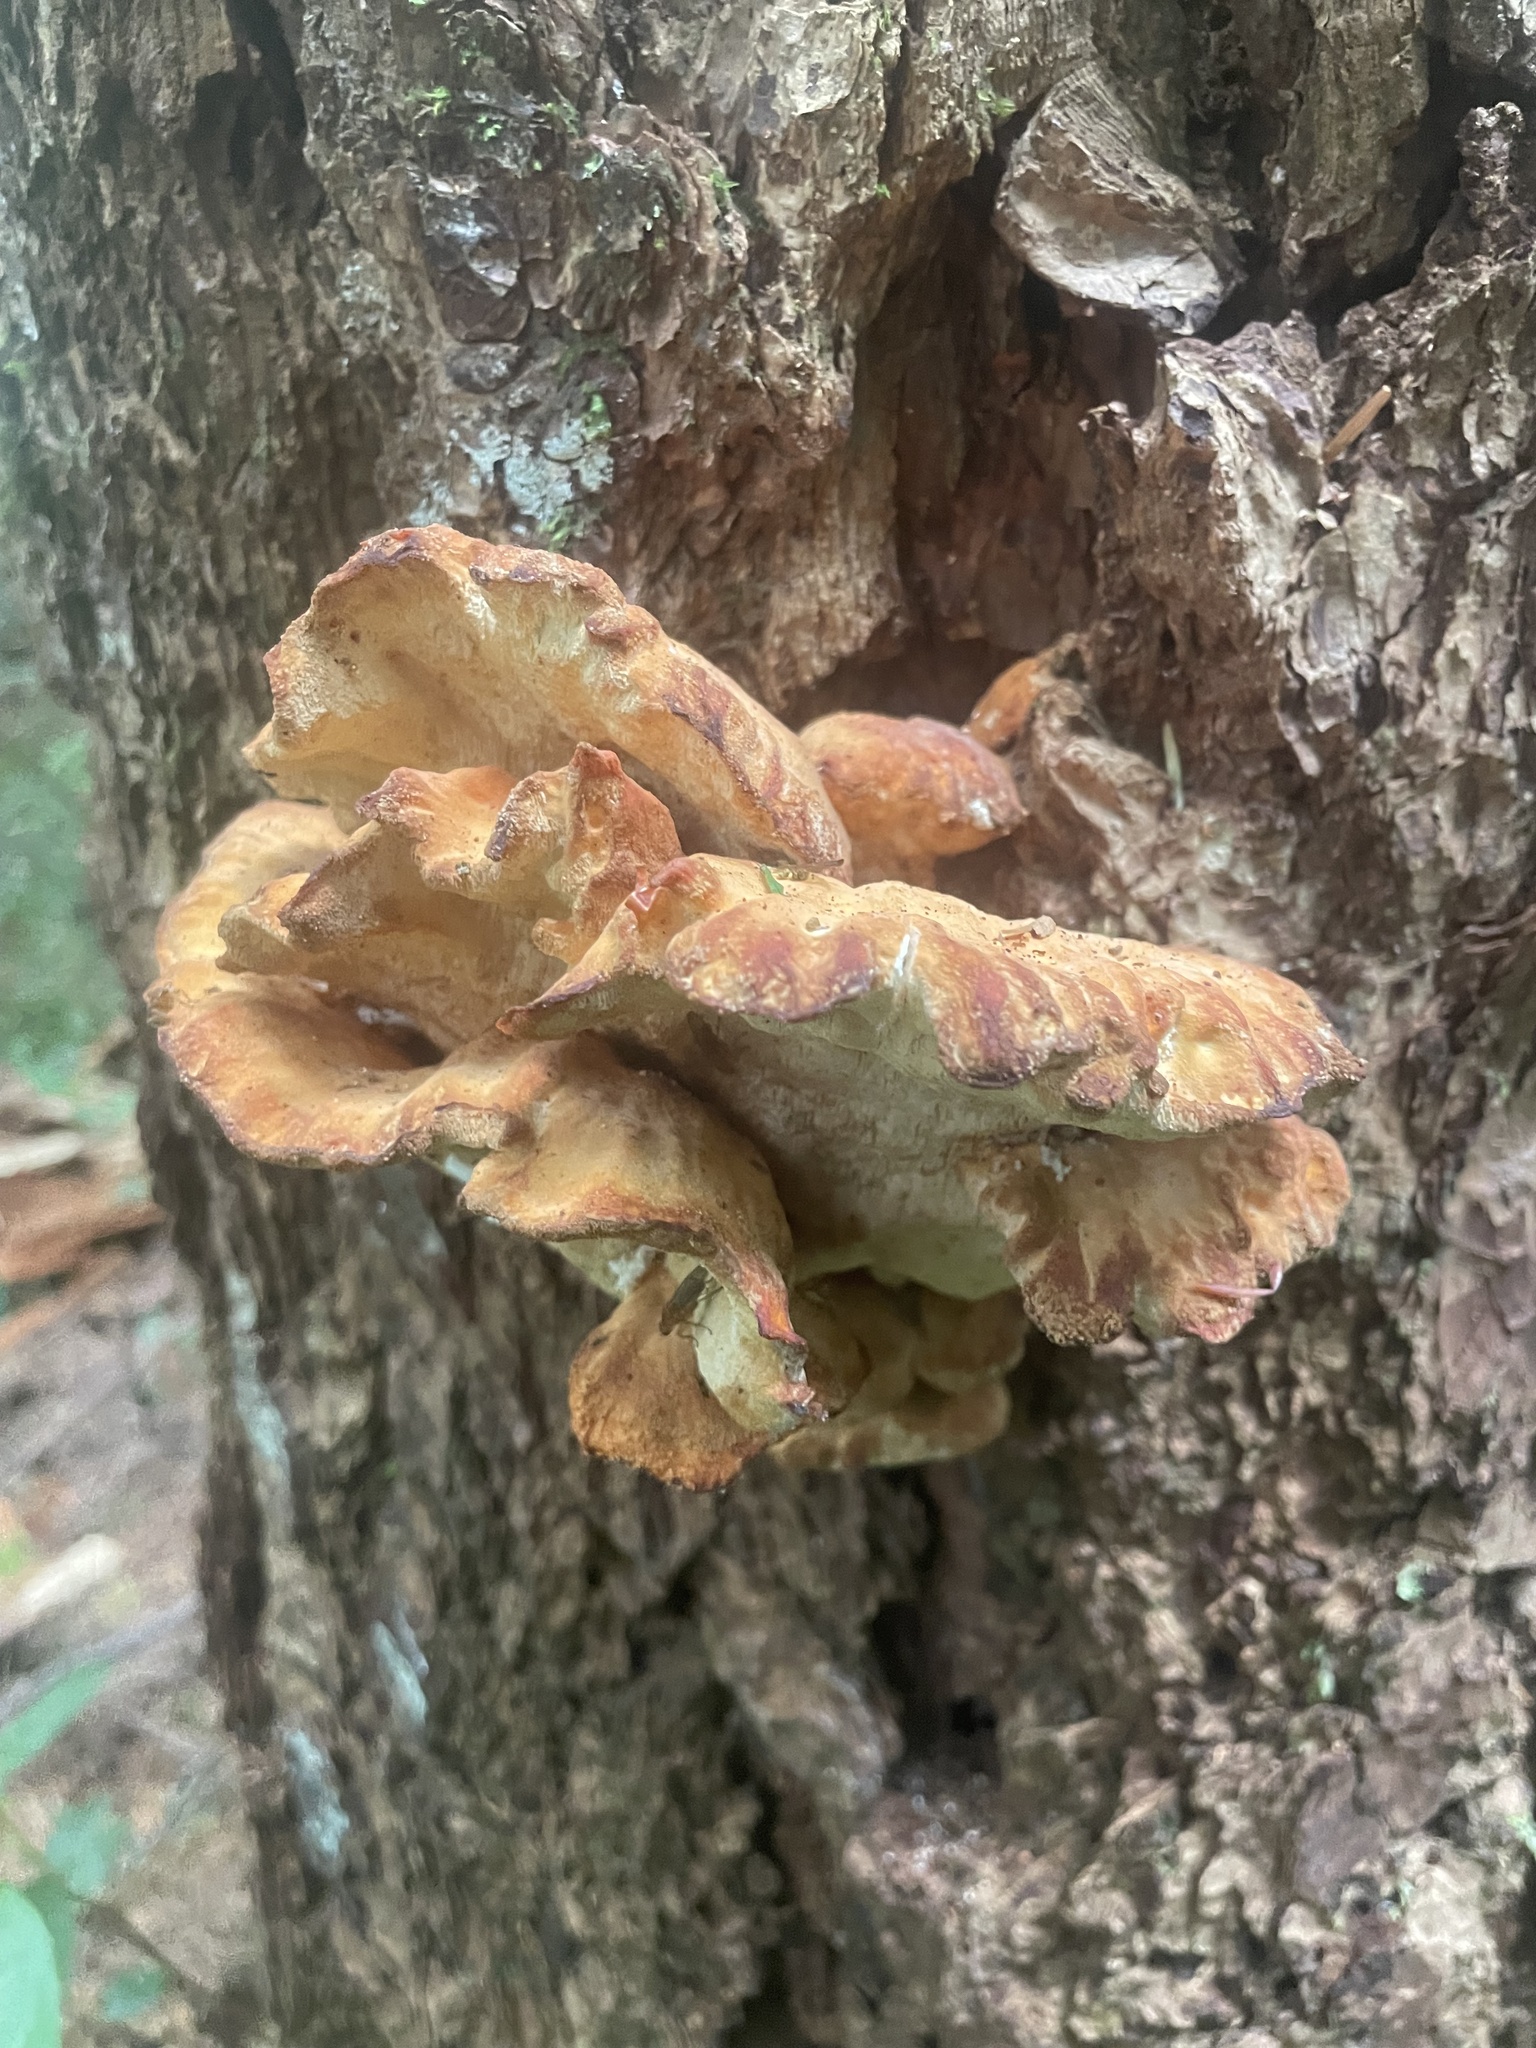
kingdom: Fungi
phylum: Basidiomycota
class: Agaricomycetes
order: Polyporales
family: Laetiporaceae
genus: Laetiporus
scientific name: Laetiporus conifericola
